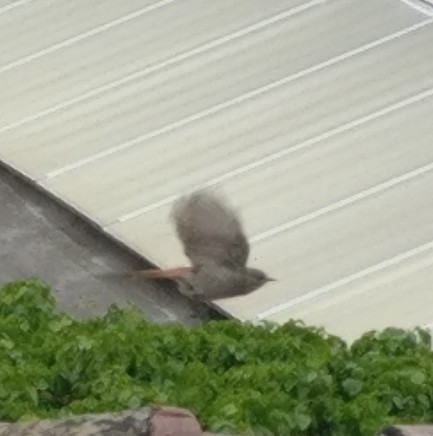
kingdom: Animalia
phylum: Chordata
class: Aves
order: Passeriformes
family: Muscicapidae
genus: Phoenicurus
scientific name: Phoenicurus ochruros
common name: Black redstart
